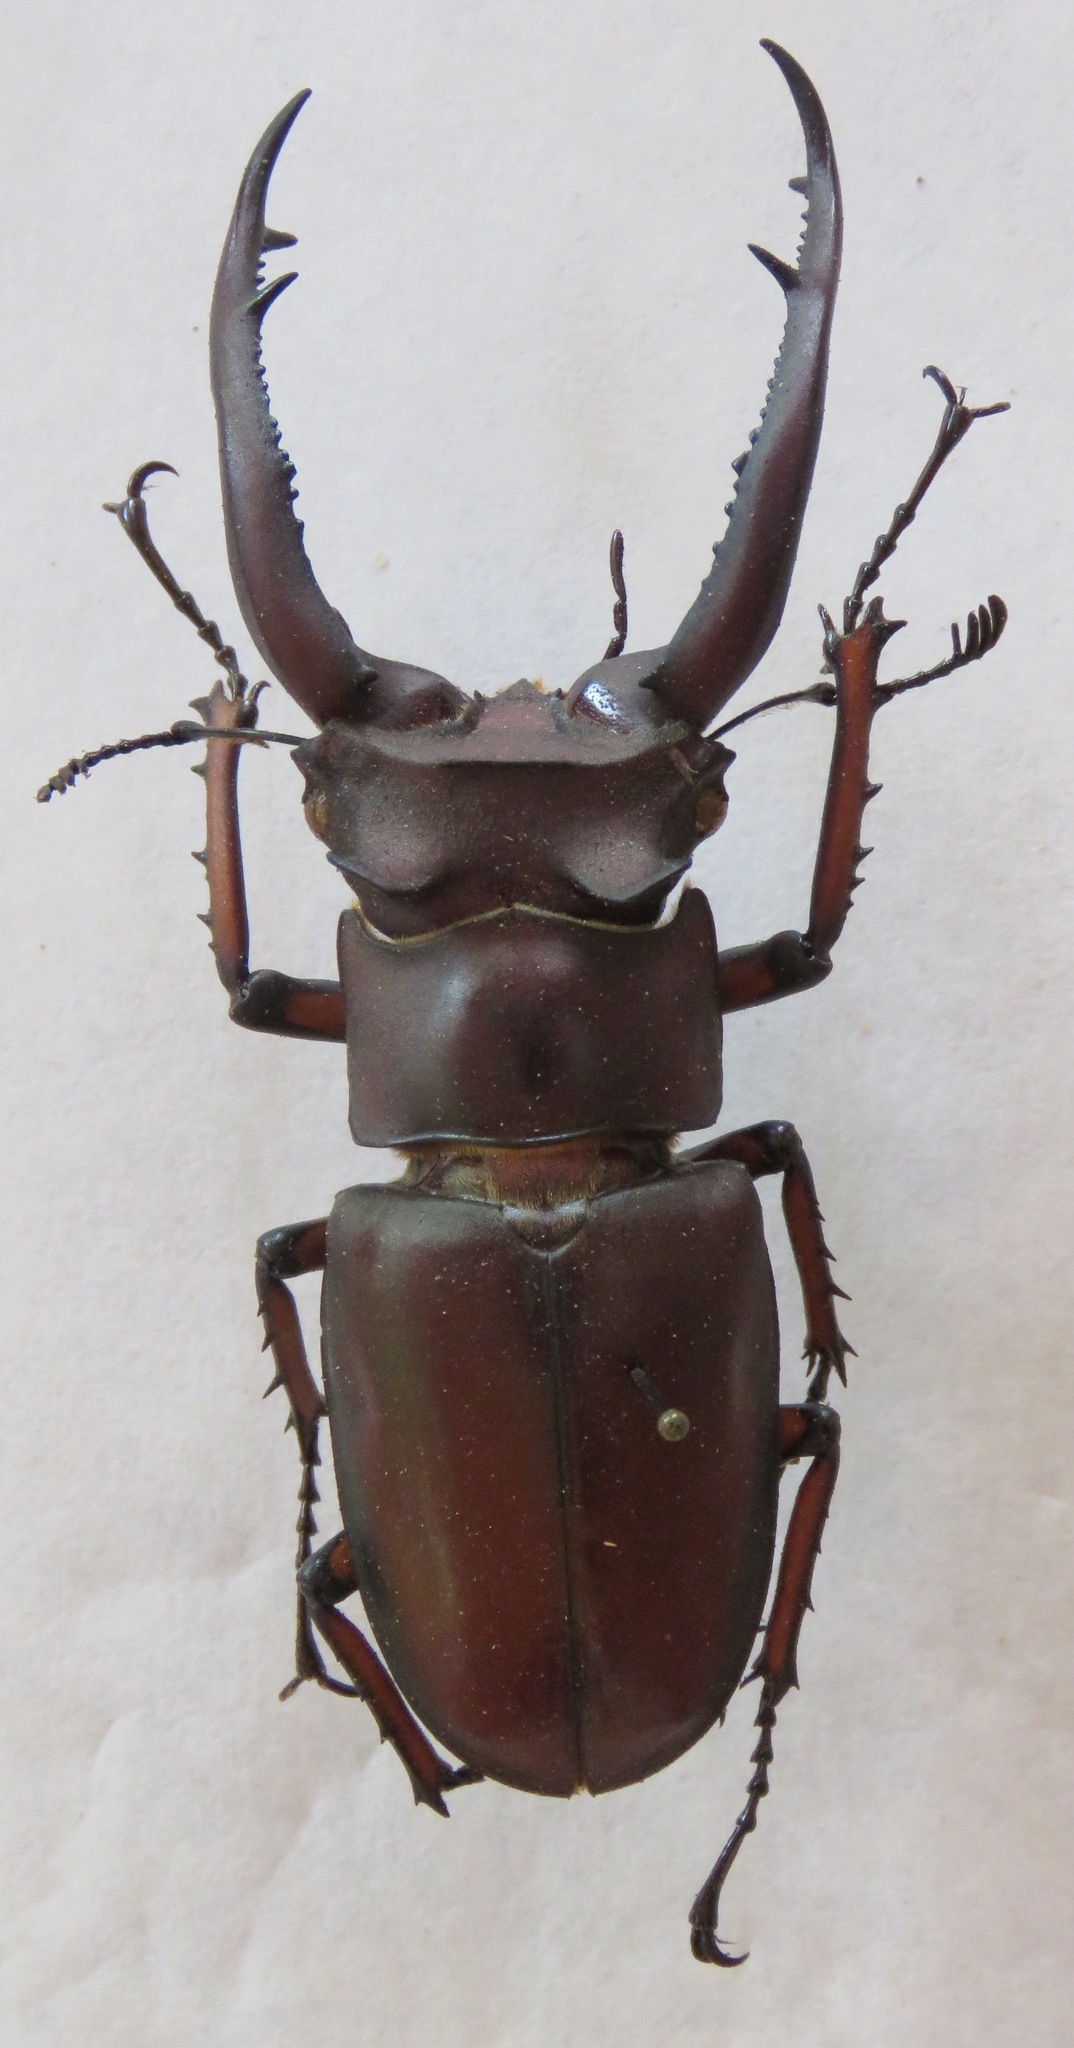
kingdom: Animalia
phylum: Arthropoda
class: Insecta
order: Coleoptera
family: Lucanidae
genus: Lucanus
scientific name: Lucanus angusticornis
